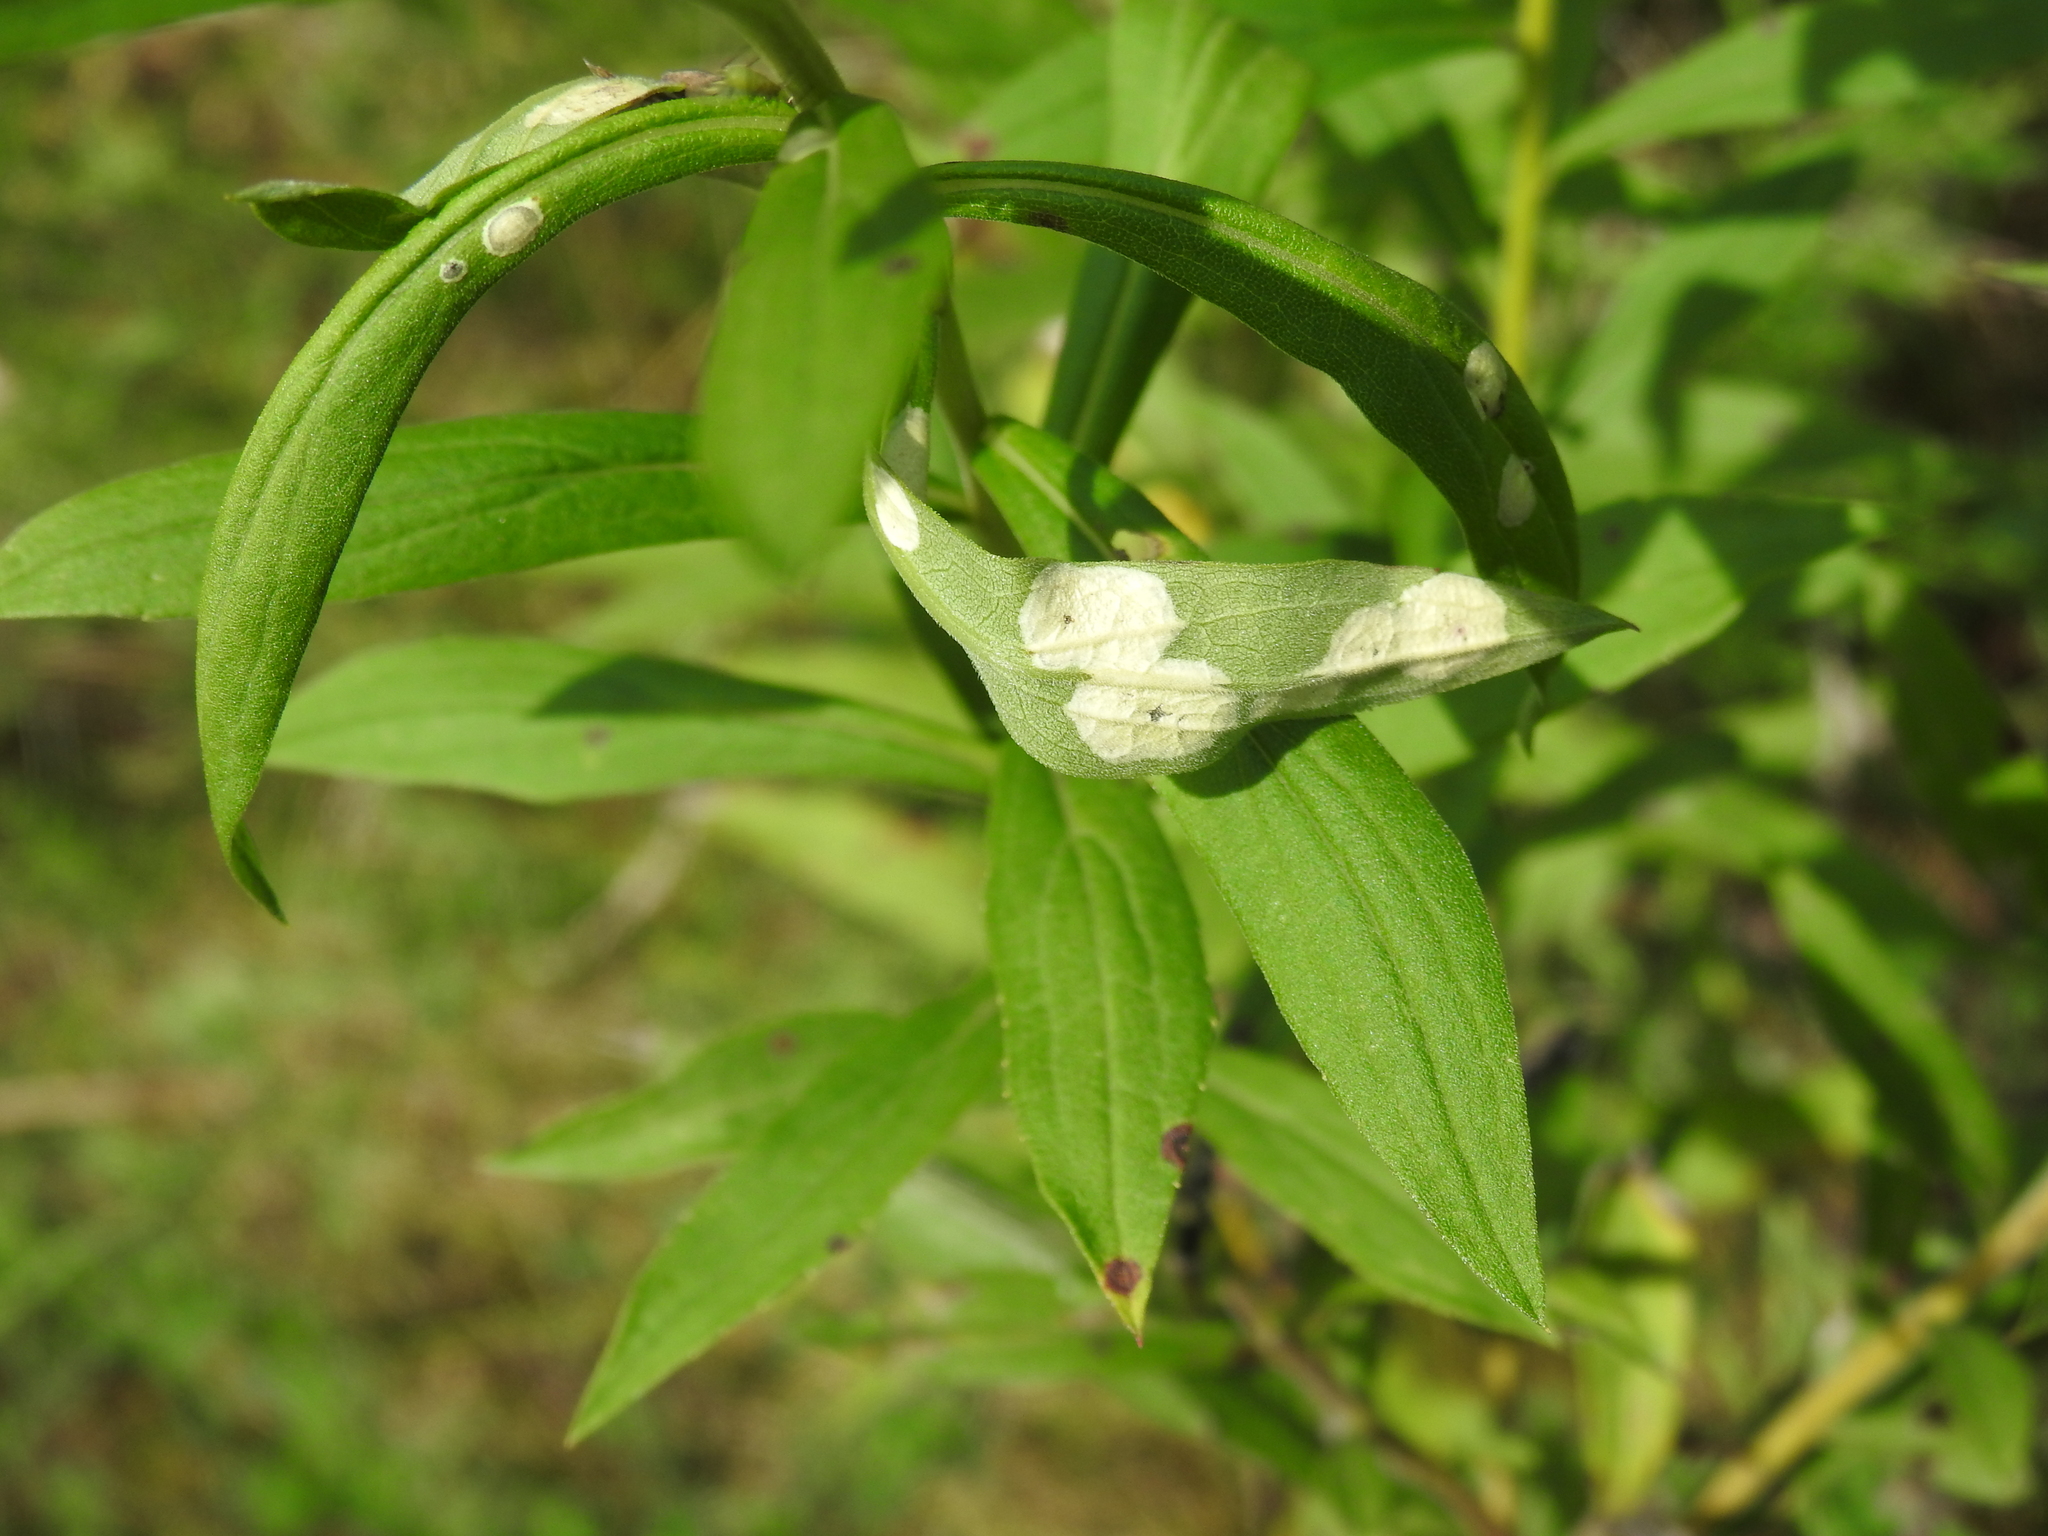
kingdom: Animalia
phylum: Arthropoda
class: Insecta
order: Diptera
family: Cecidomyiidae
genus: Asteromyia
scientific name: Asteromyia carbonifera
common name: Carbonifera goldenrod gall midge
